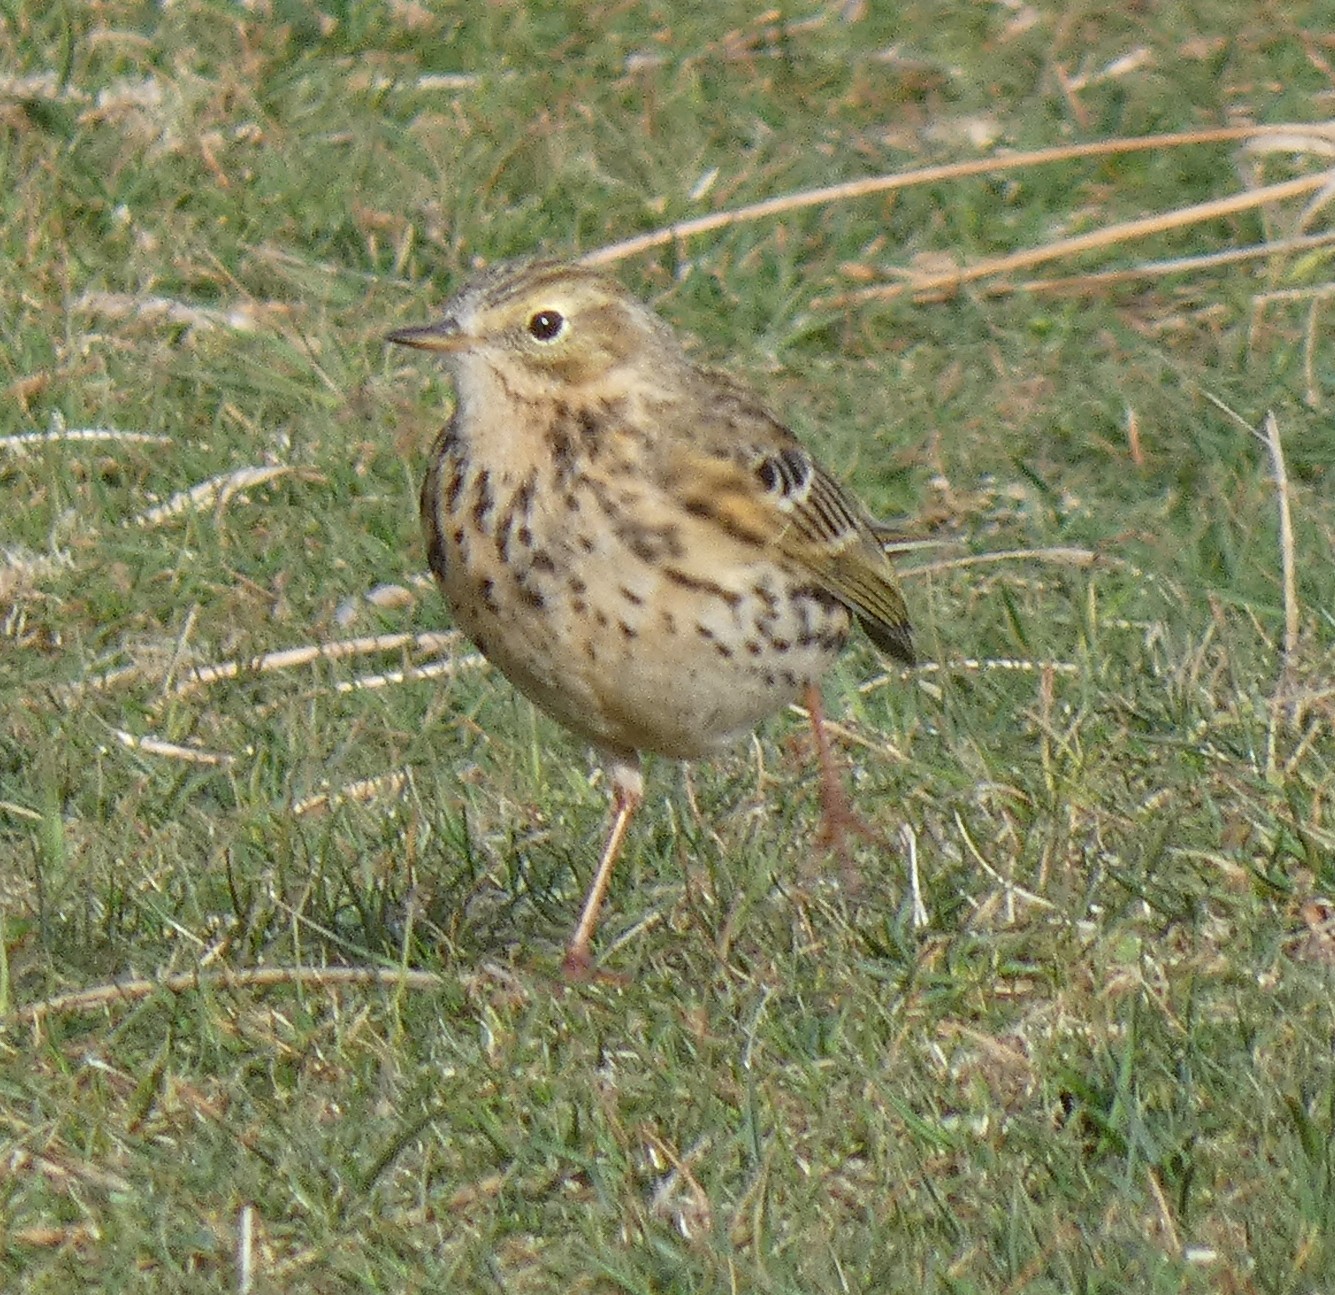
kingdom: Animalia
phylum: Chordata
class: Aves
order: Passeriformes
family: Motacillidae
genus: Anthus
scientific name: Anthus pratensis
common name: Meadow pipit
